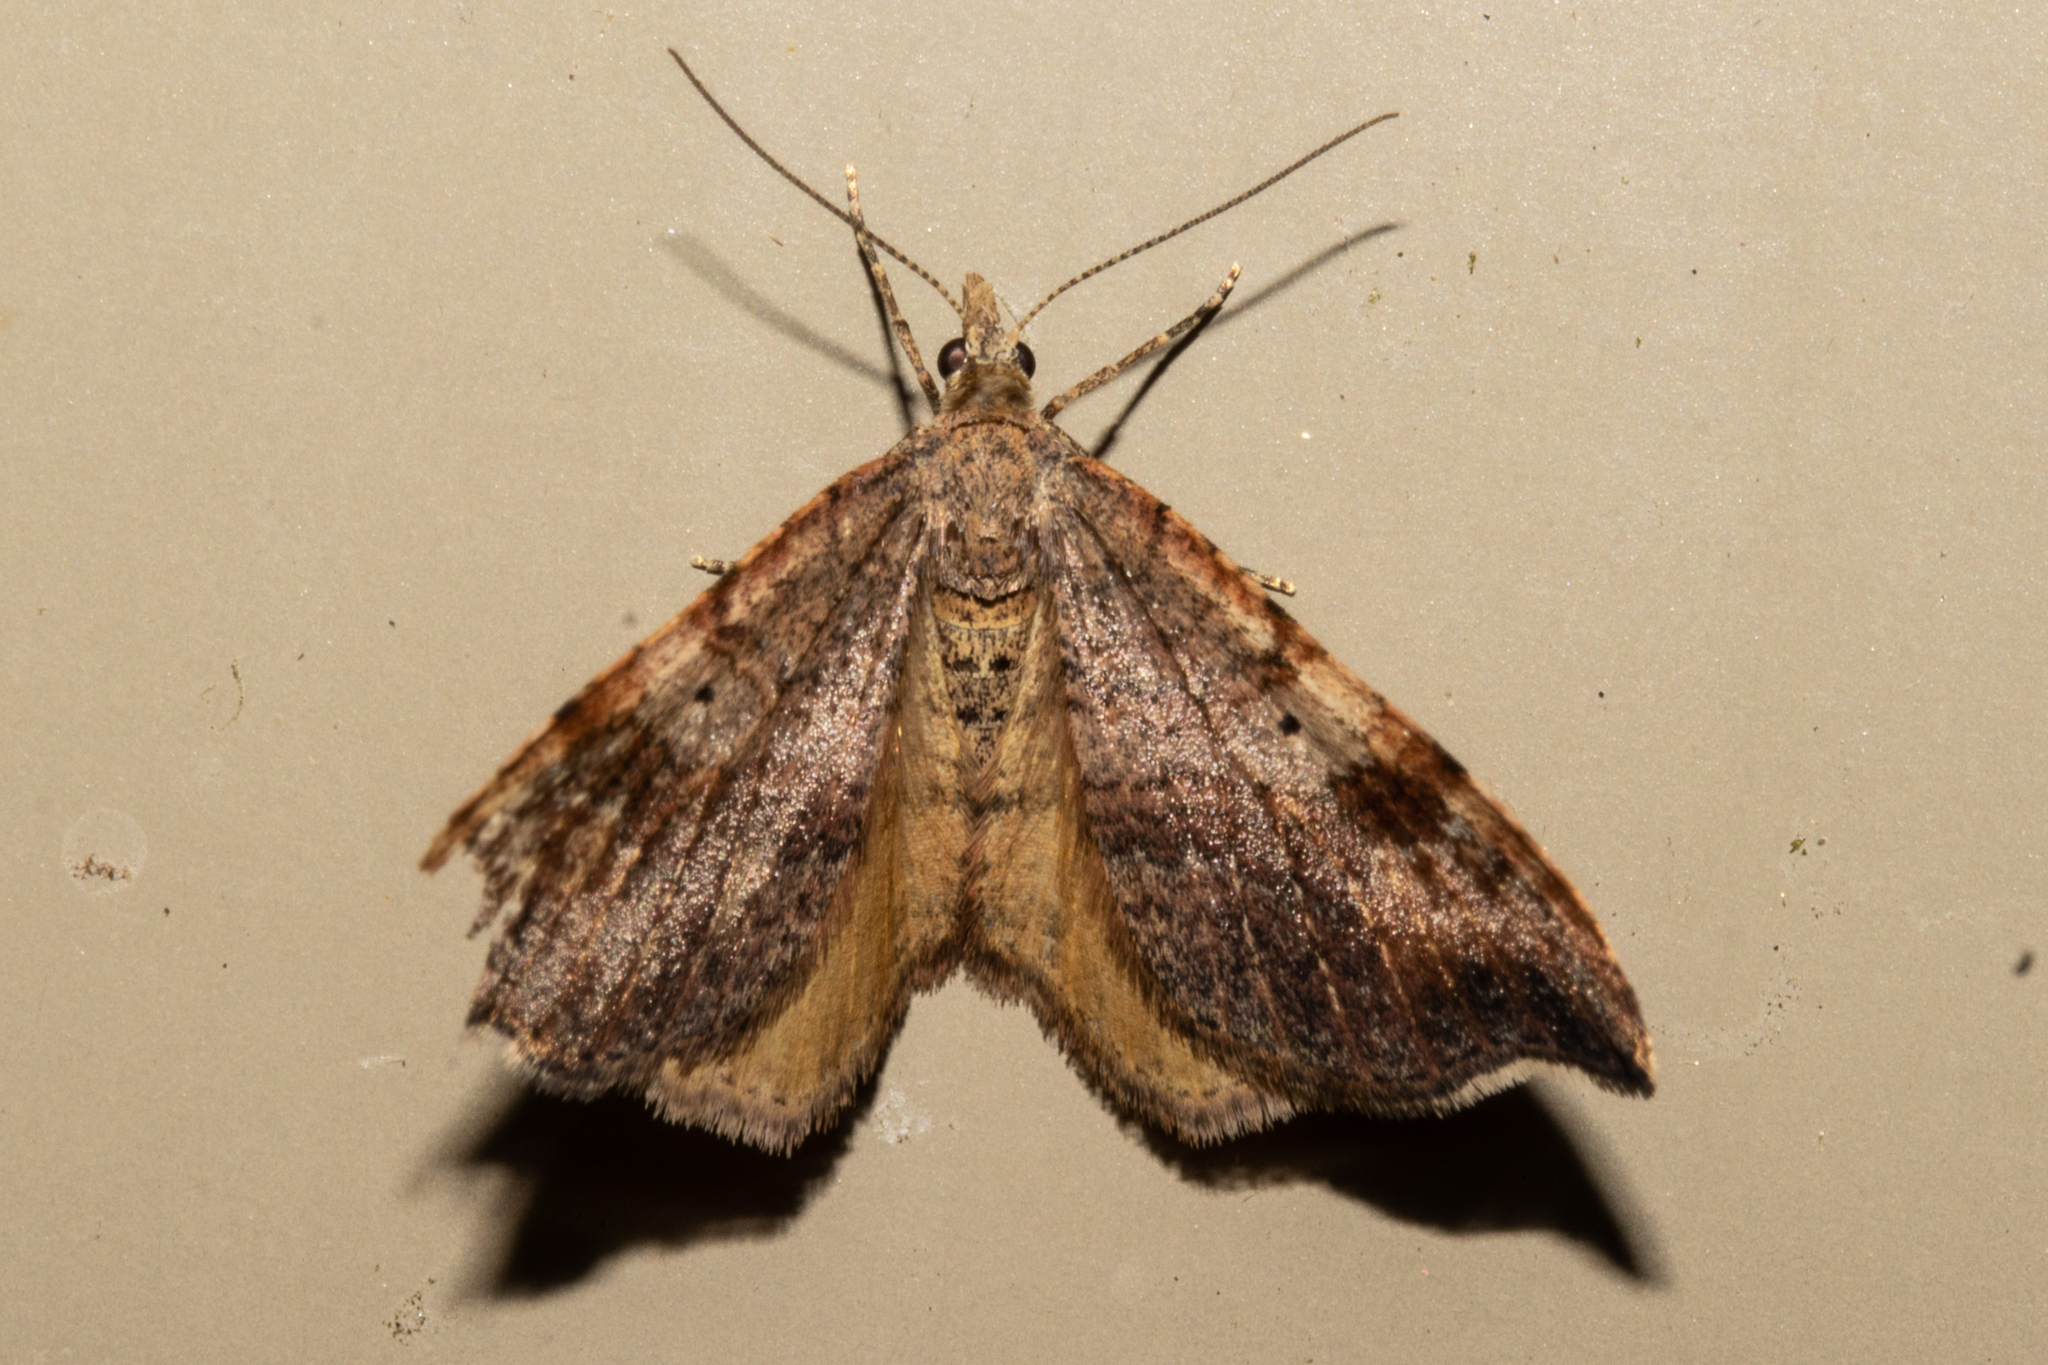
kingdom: Animalia
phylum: Arthropoda
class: Insecta
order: Lepidoptera
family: Geometridae
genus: Homodotis
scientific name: Homodotis megaspilata
